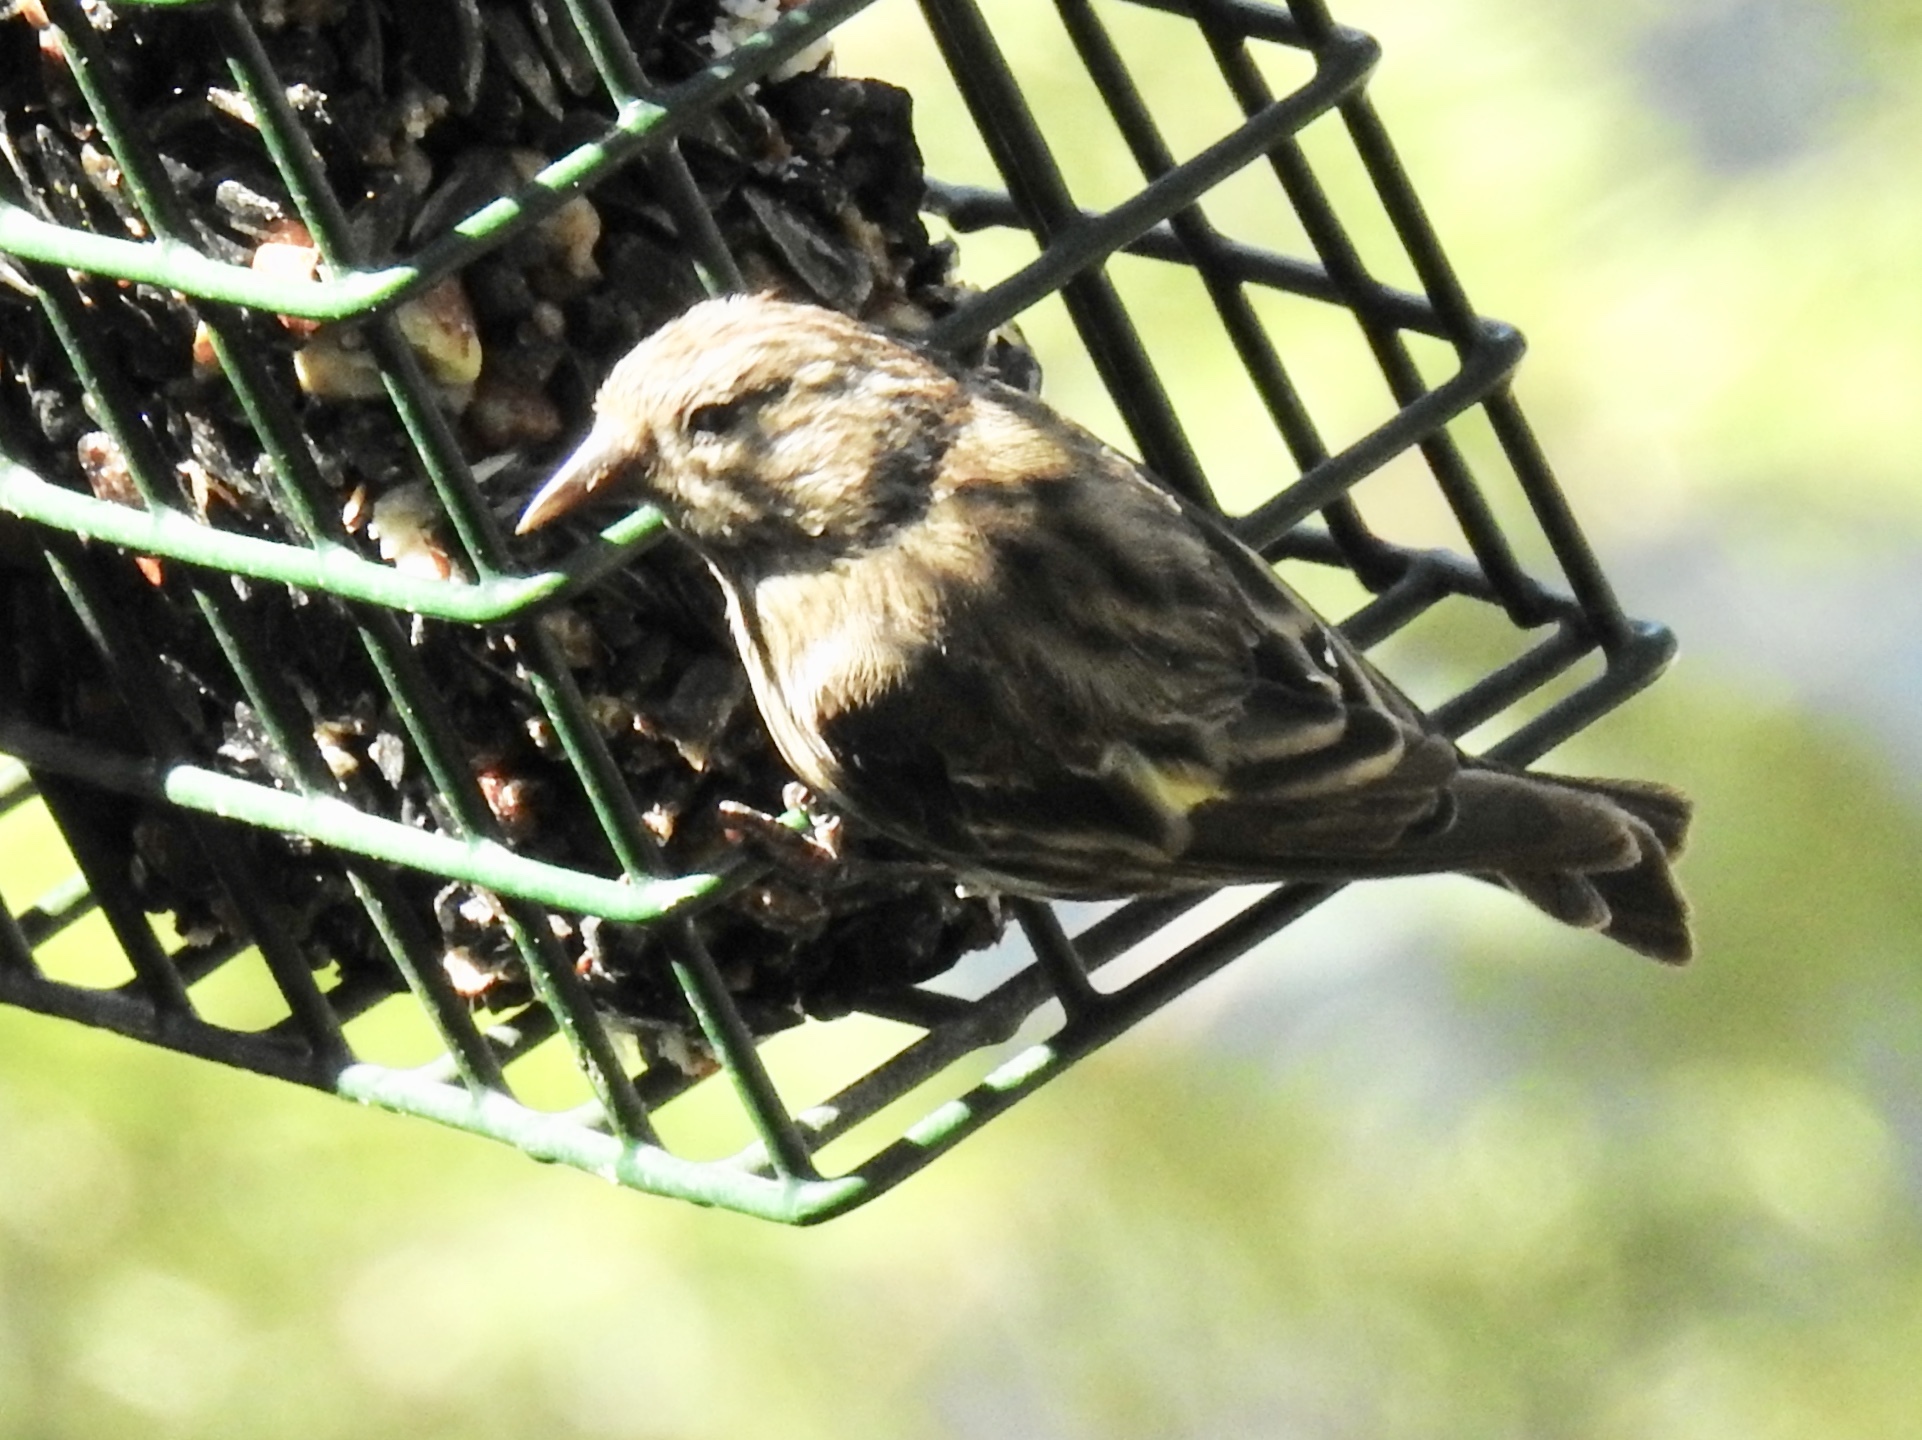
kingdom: Animalia
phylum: Chordata
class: Aves
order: Passeriformes
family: Fringillidae
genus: Spinus
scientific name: Spinus pinus
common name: Pine siskin
